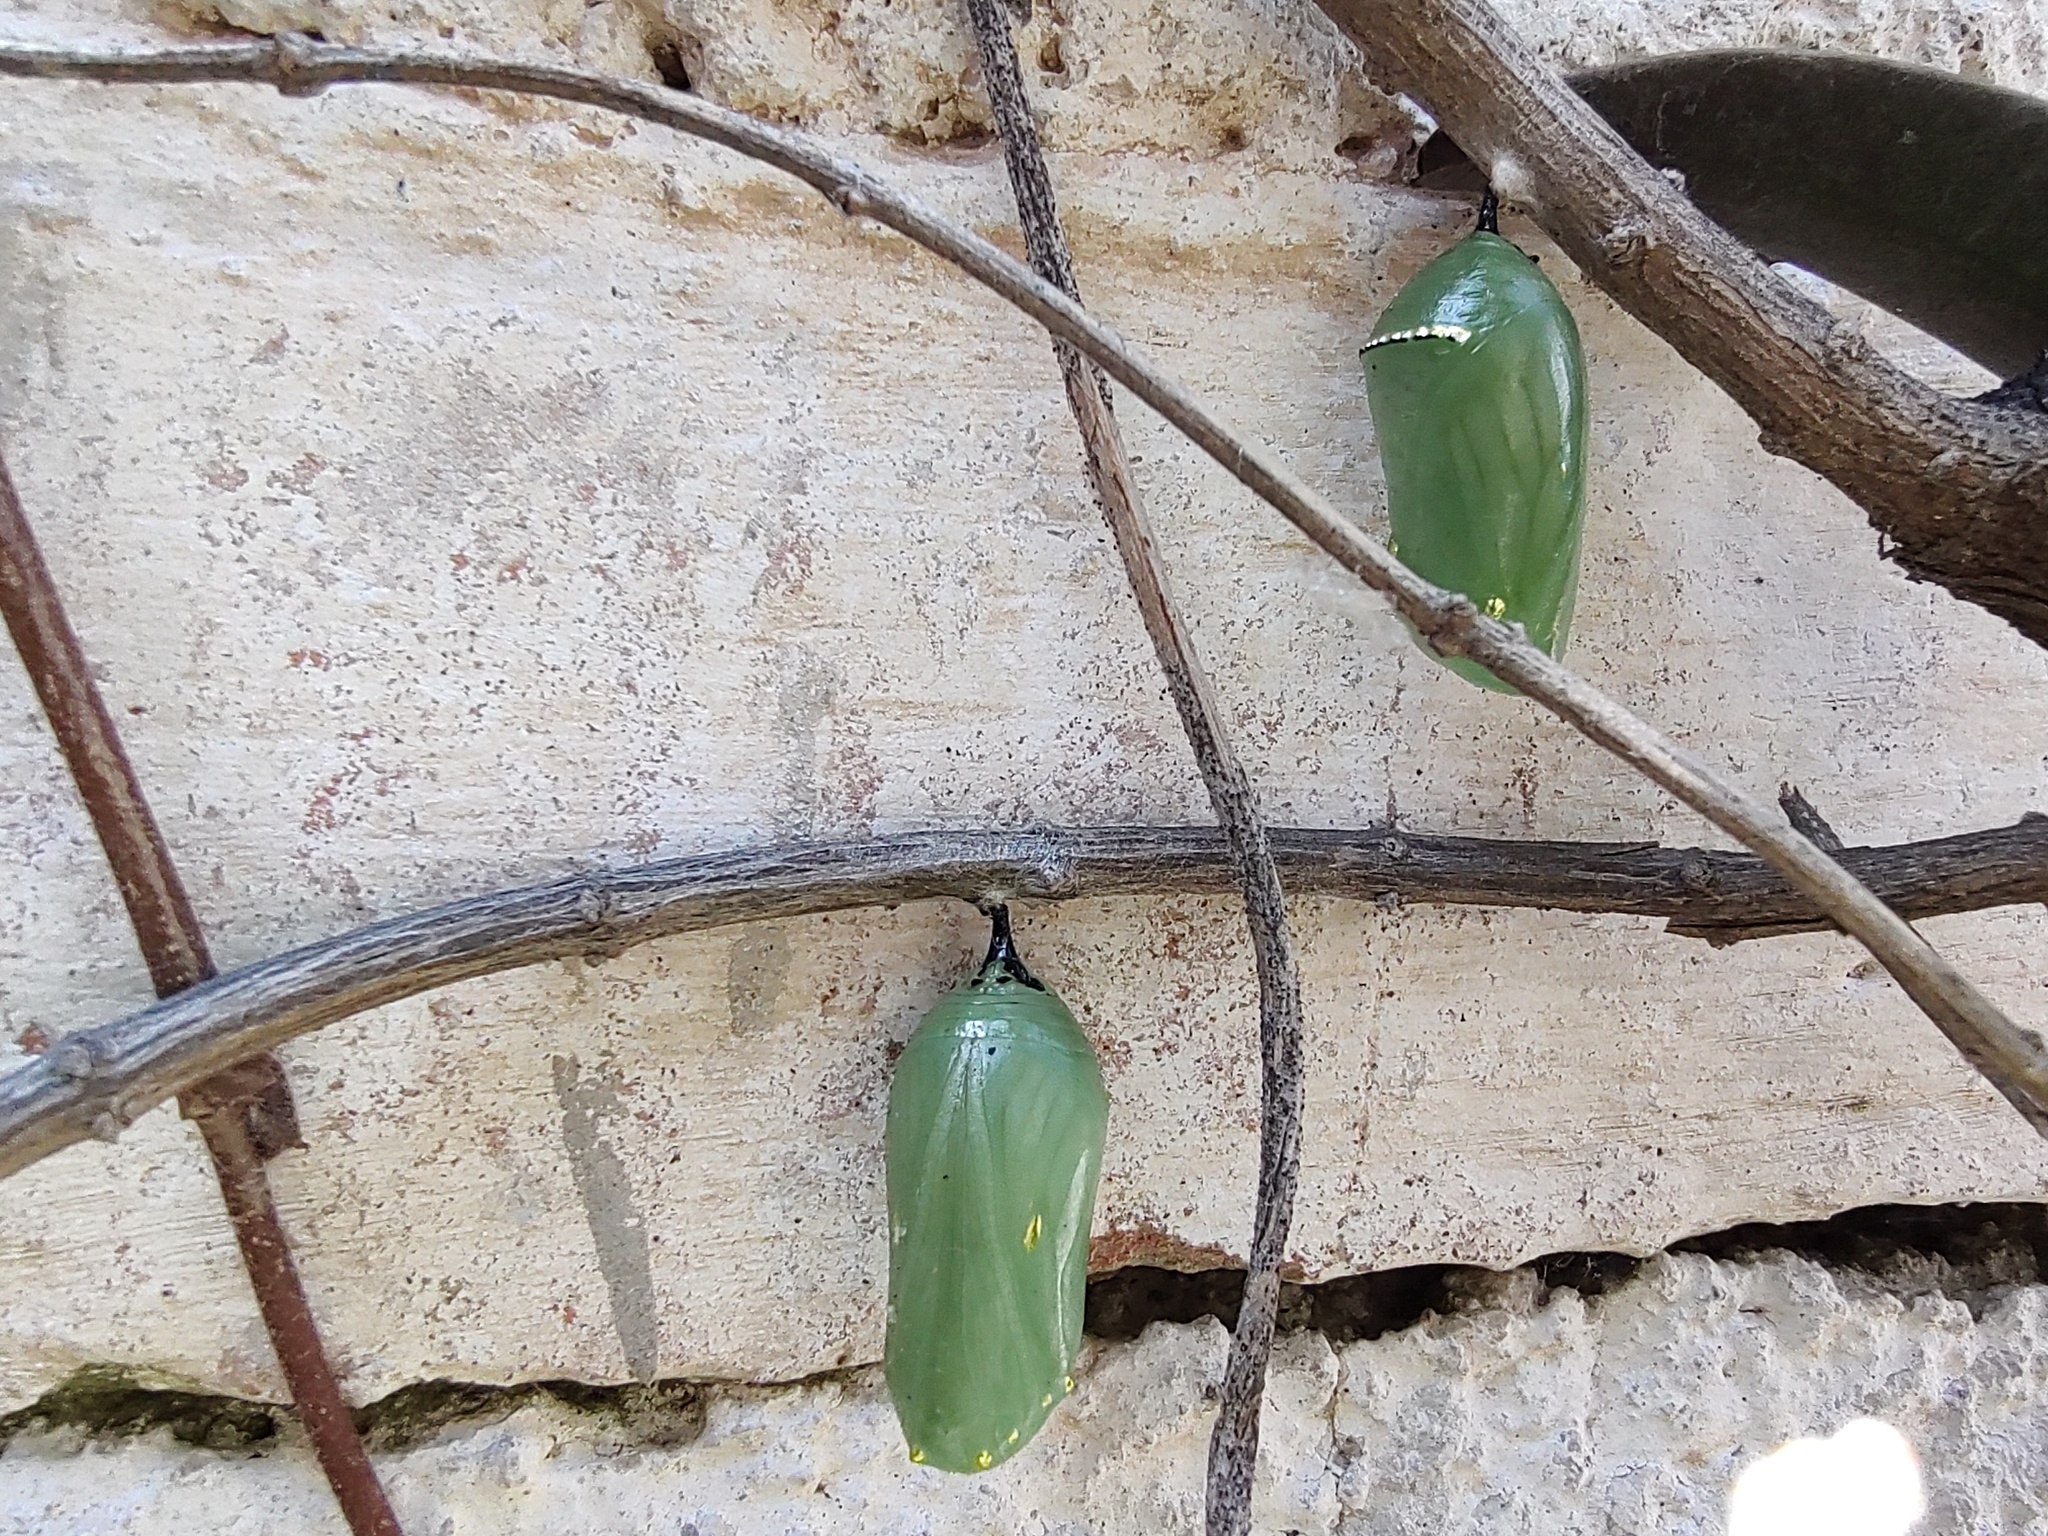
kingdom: Animalia
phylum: Arthropoda
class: Insecta
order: Lepidoptera
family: Nymphalidae
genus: Danaus
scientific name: Danaus plexippus
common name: Monarch
